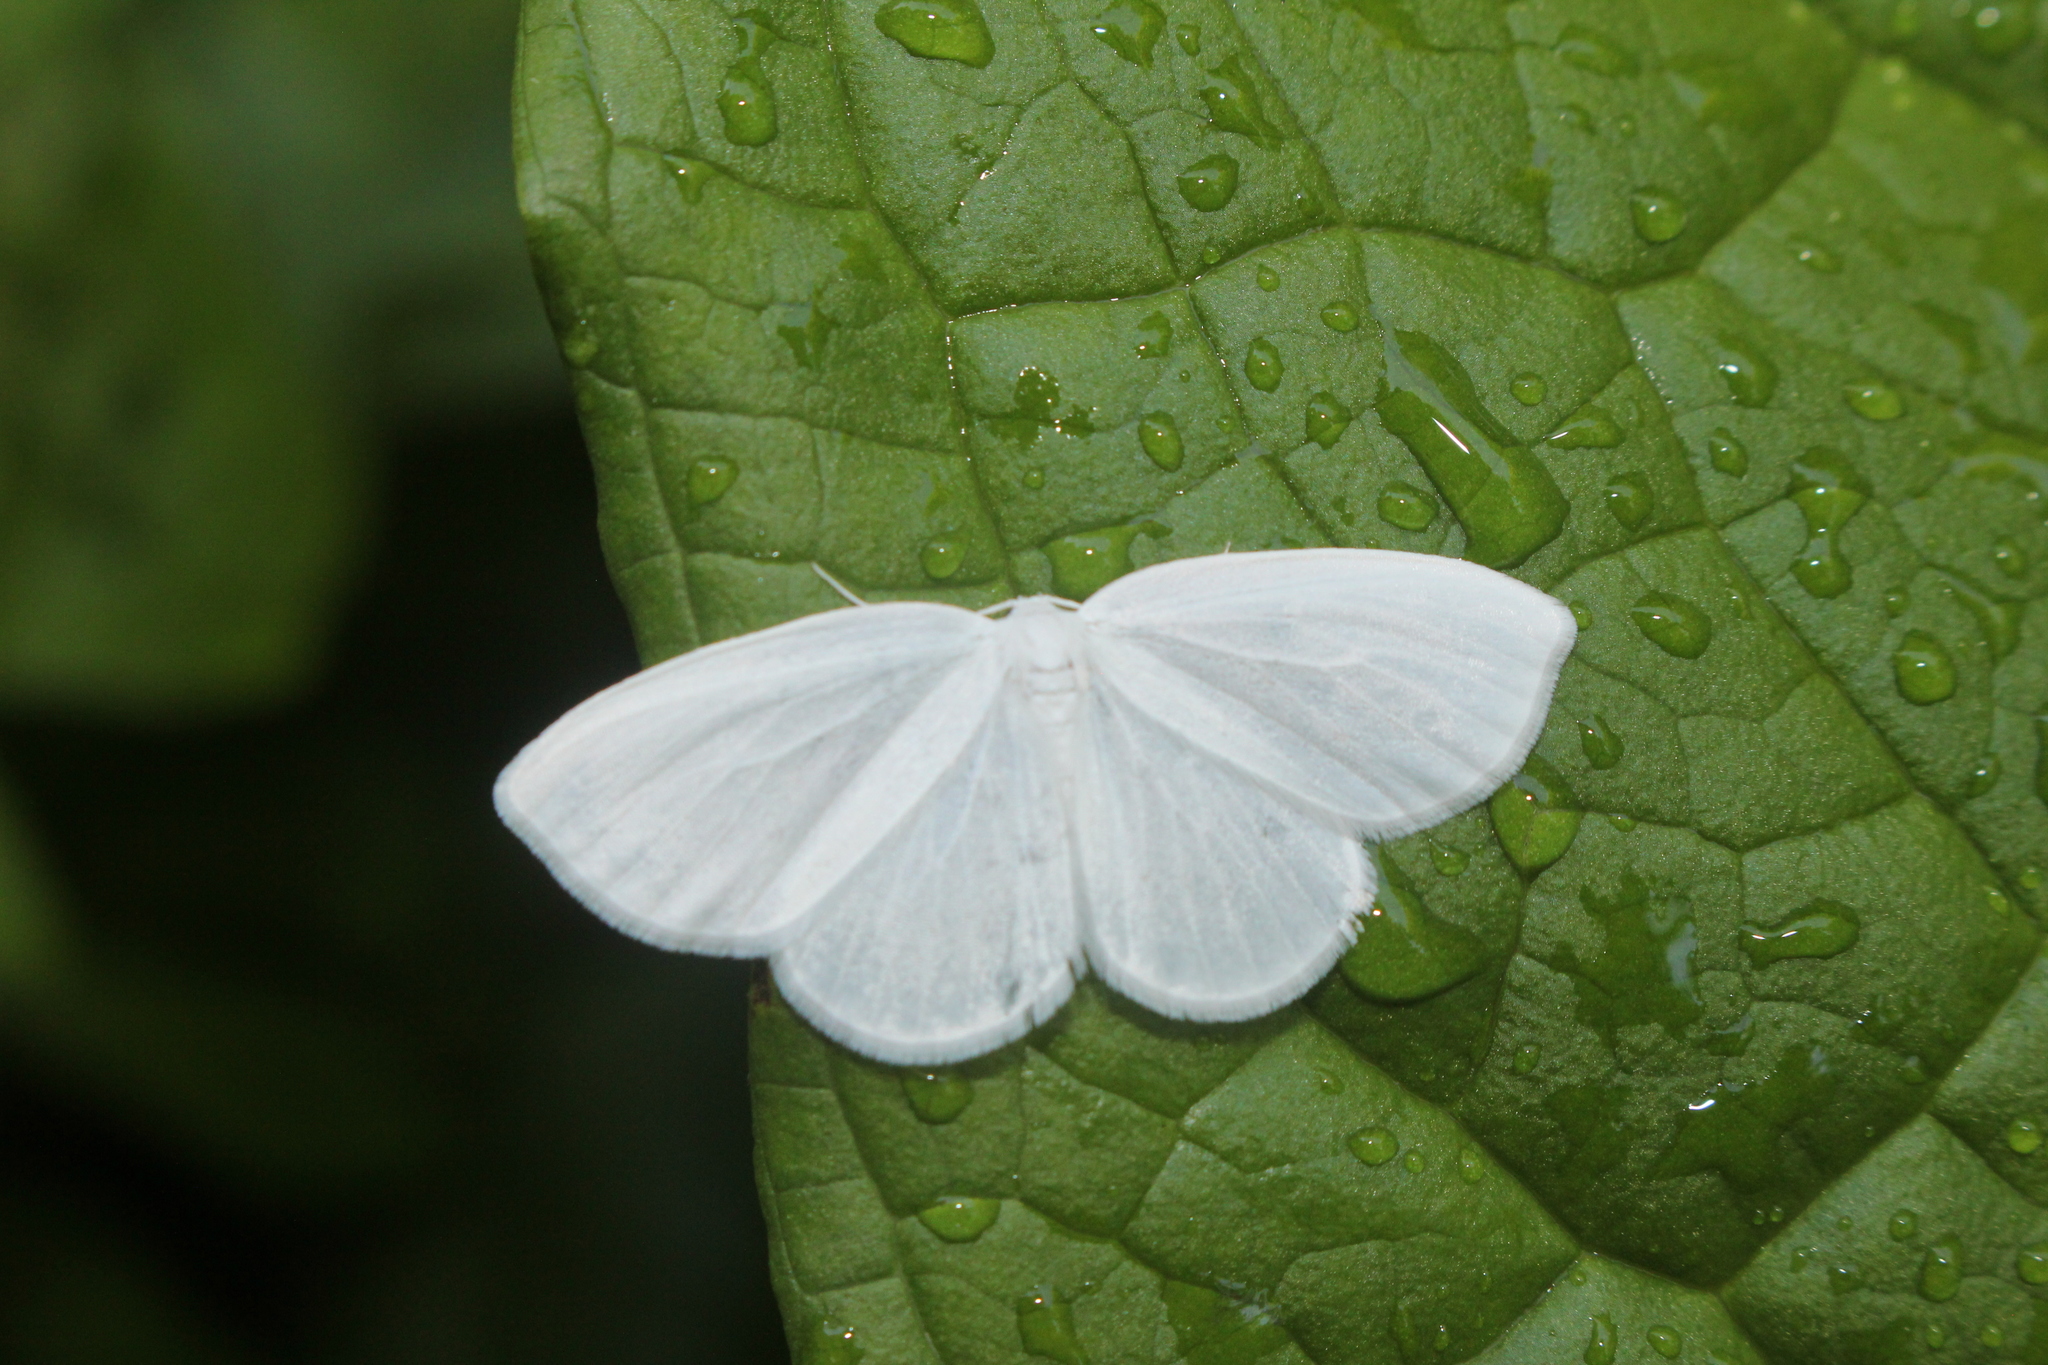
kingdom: Animalia
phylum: Arthropoda
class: Insecta
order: Lepidoptera
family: Drepanidae
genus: Eudeilinia
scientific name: Eudeilinia herminiata
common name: Northern eudeilinea moth
